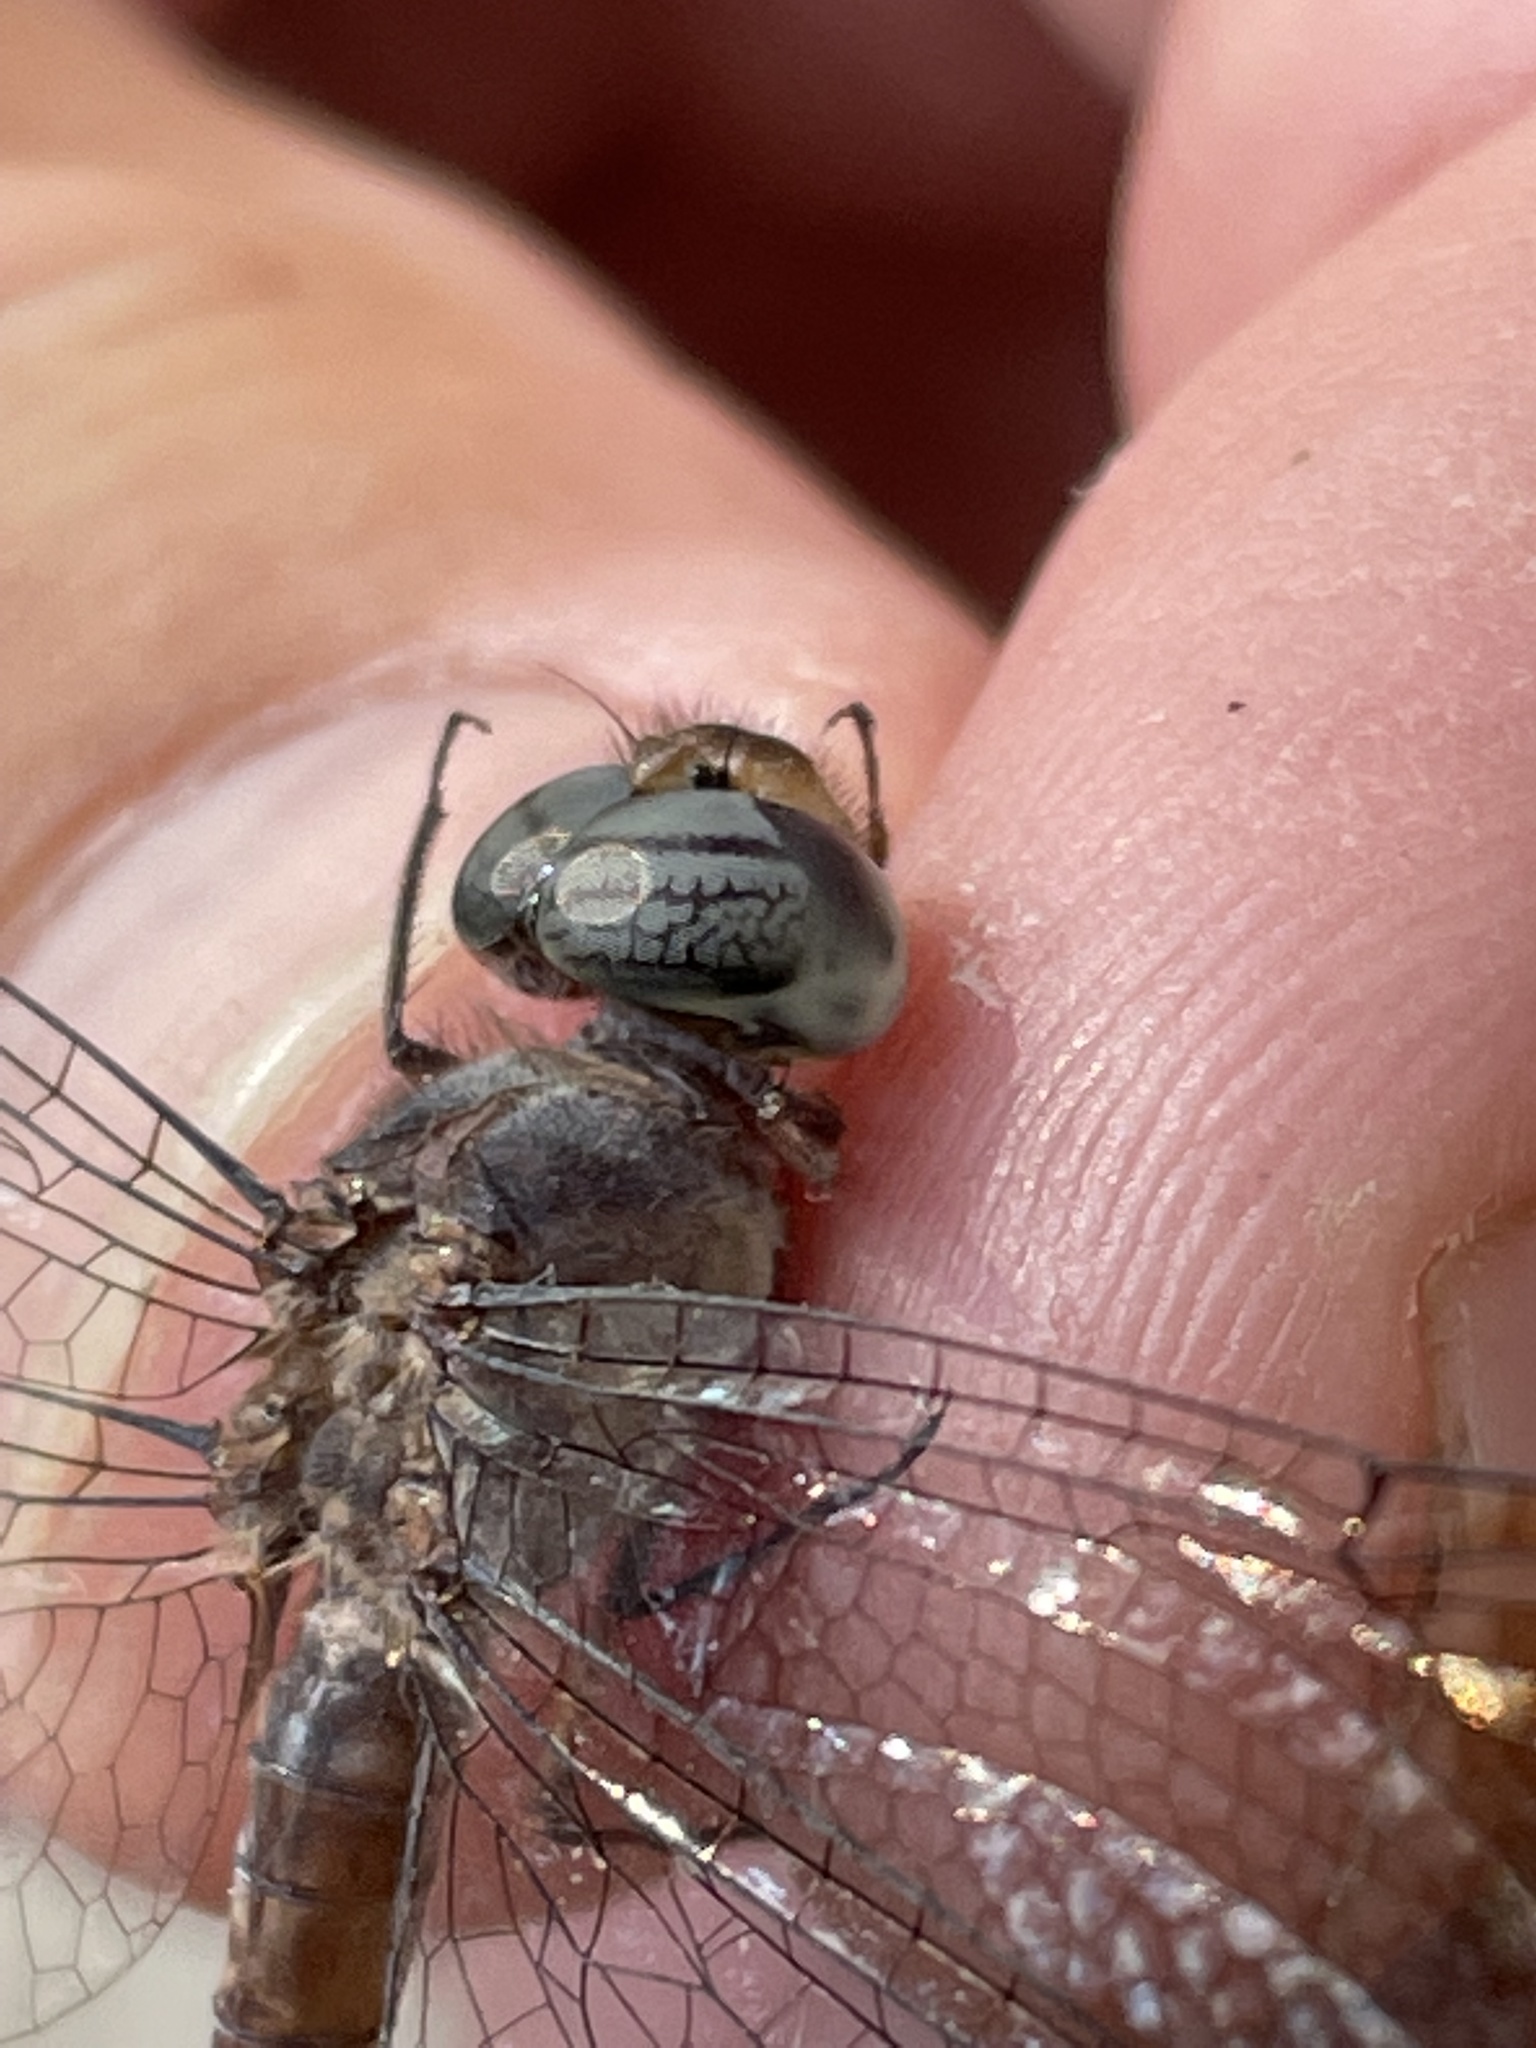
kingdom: Animalia
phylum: Arthropoda
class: Insecta
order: Odonata
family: Libellulidae
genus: Parazyxomma
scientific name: Parazyxomma flavicans
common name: Banded duskdarter
